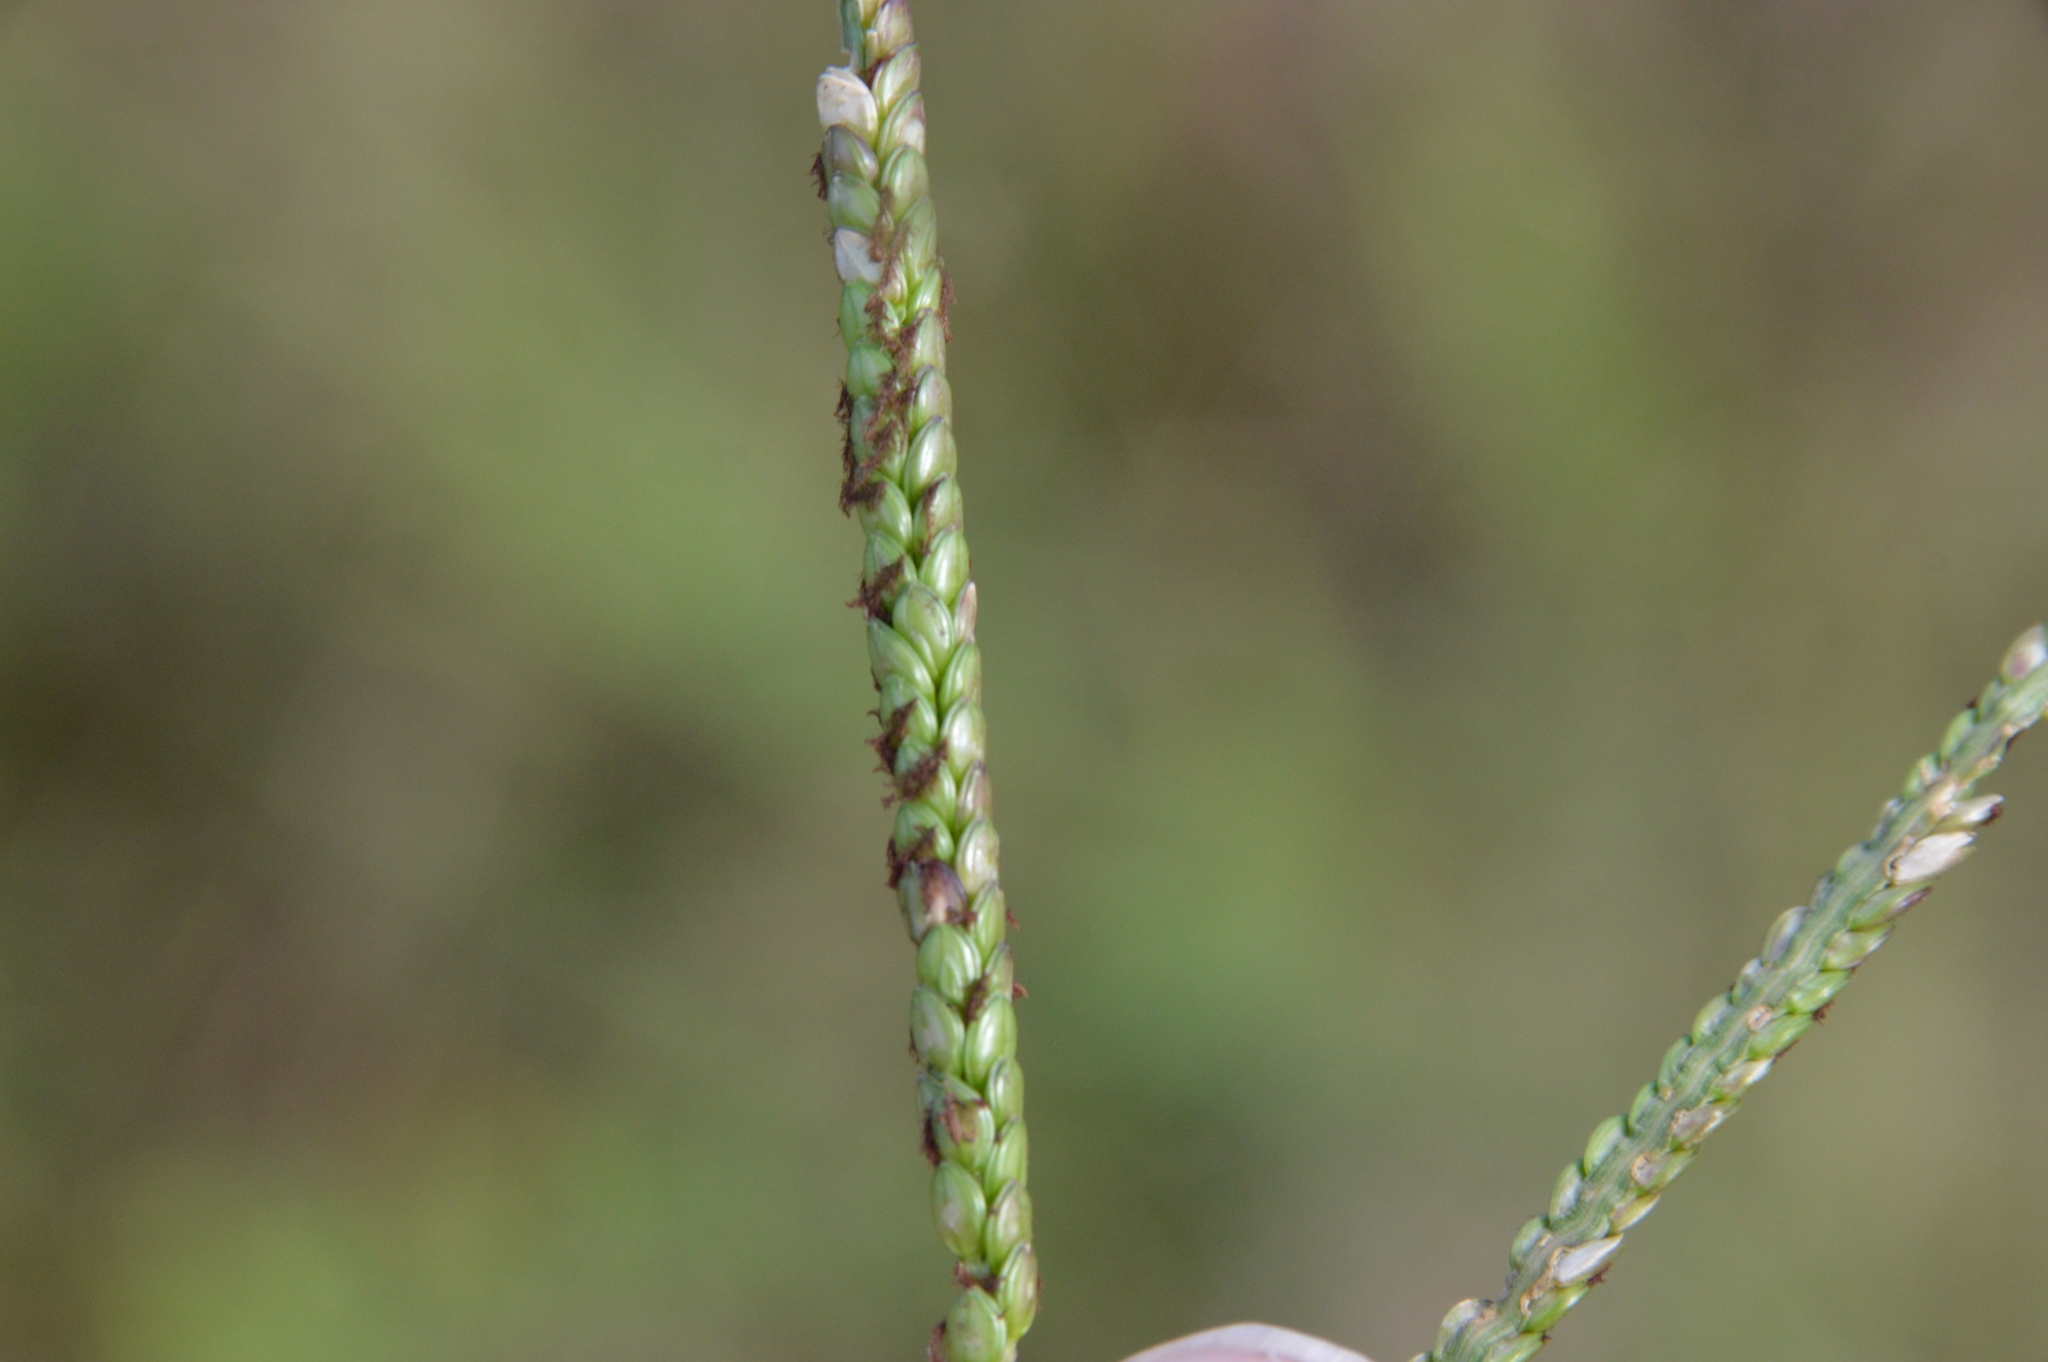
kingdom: Plantae
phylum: Tracheophyta
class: Liliopsida
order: Poales
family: Poaceae
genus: Paspalum
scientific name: Paspalum notatum
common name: Bahiagrass
